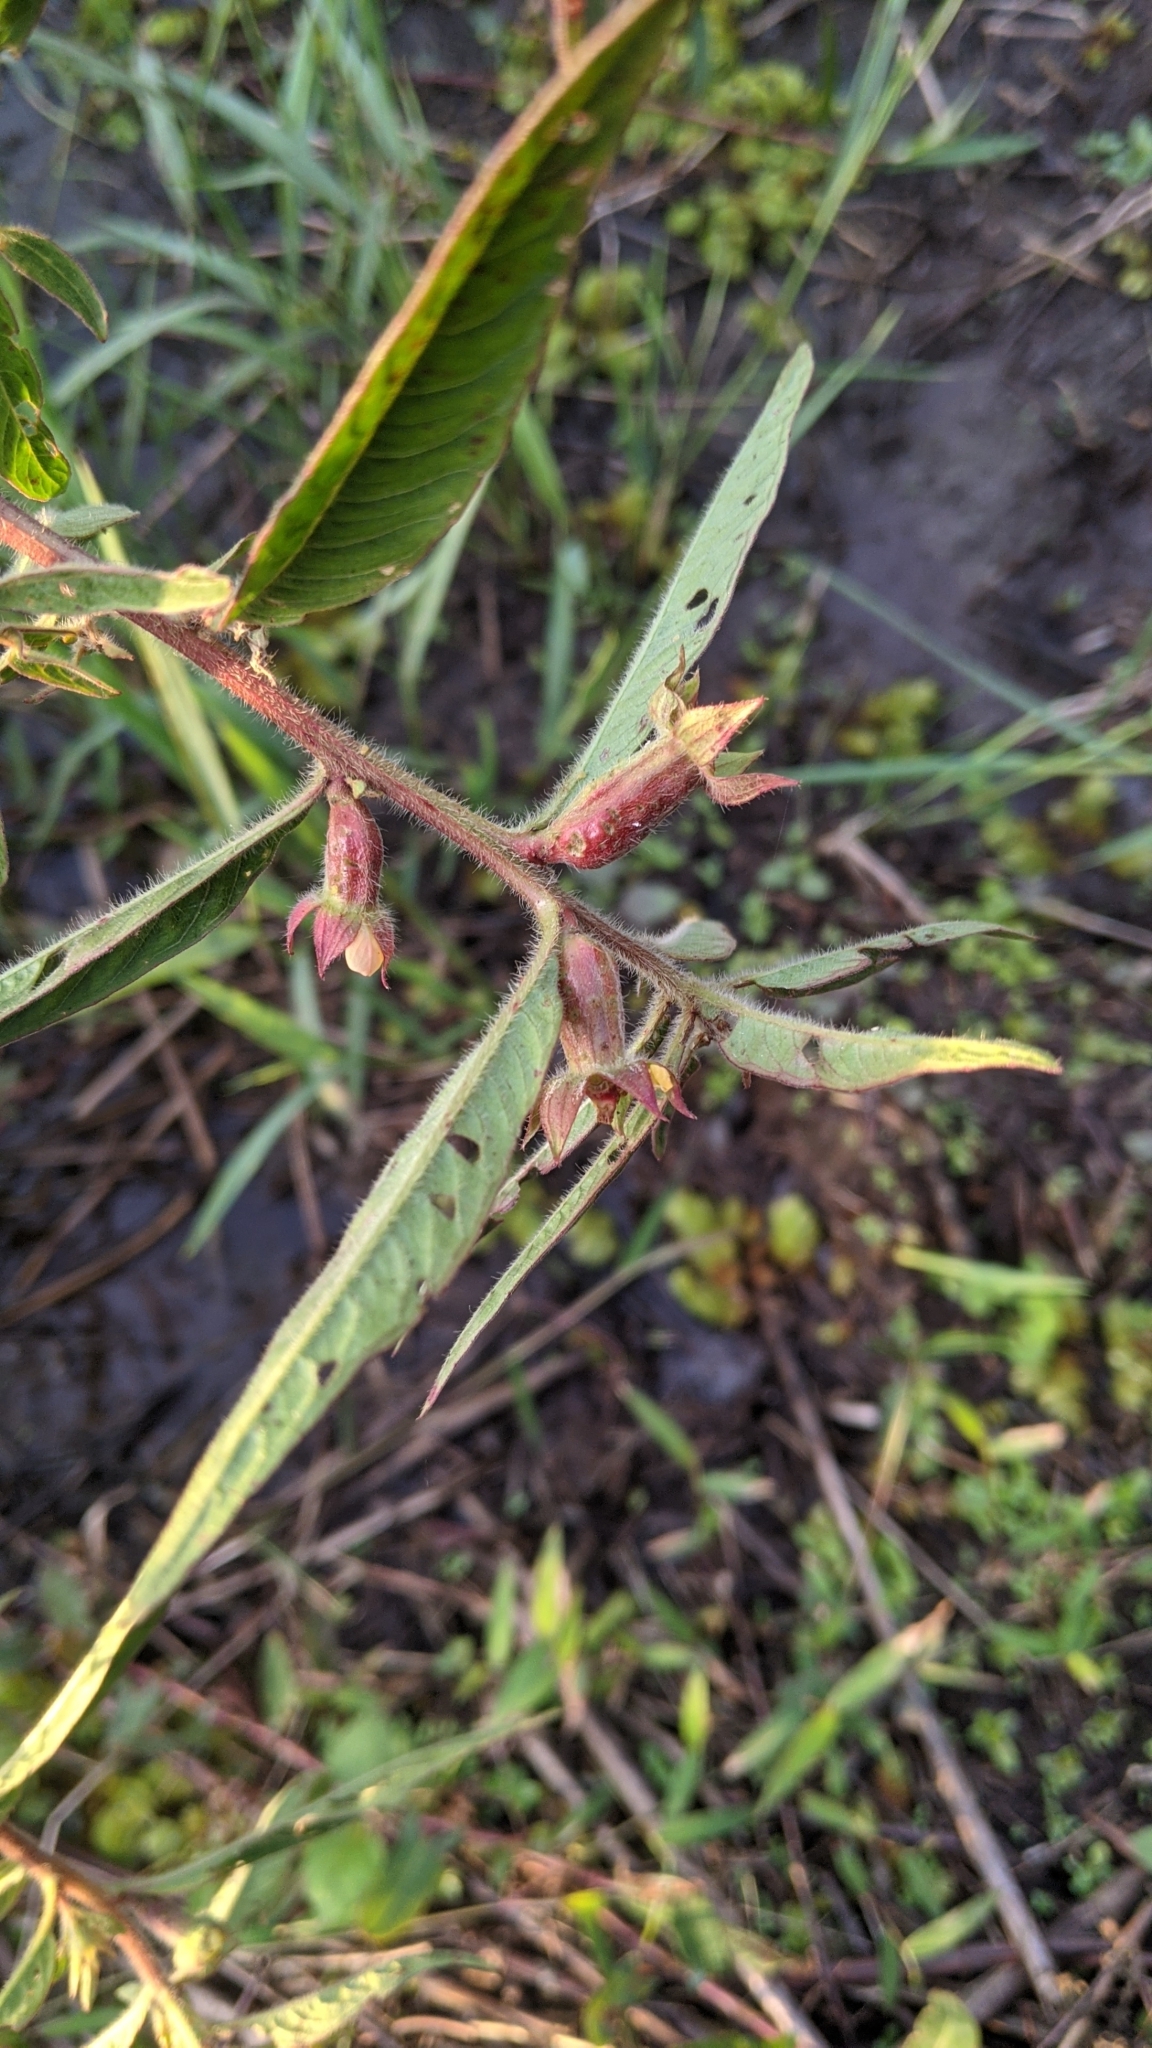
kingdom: Plantae
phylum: Tracheophyta
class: Magnoliopsida
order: Myrtales
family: Onagraceae
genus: Ludwigia
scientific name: Ludwigia octovalvis
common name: Water-primrose
